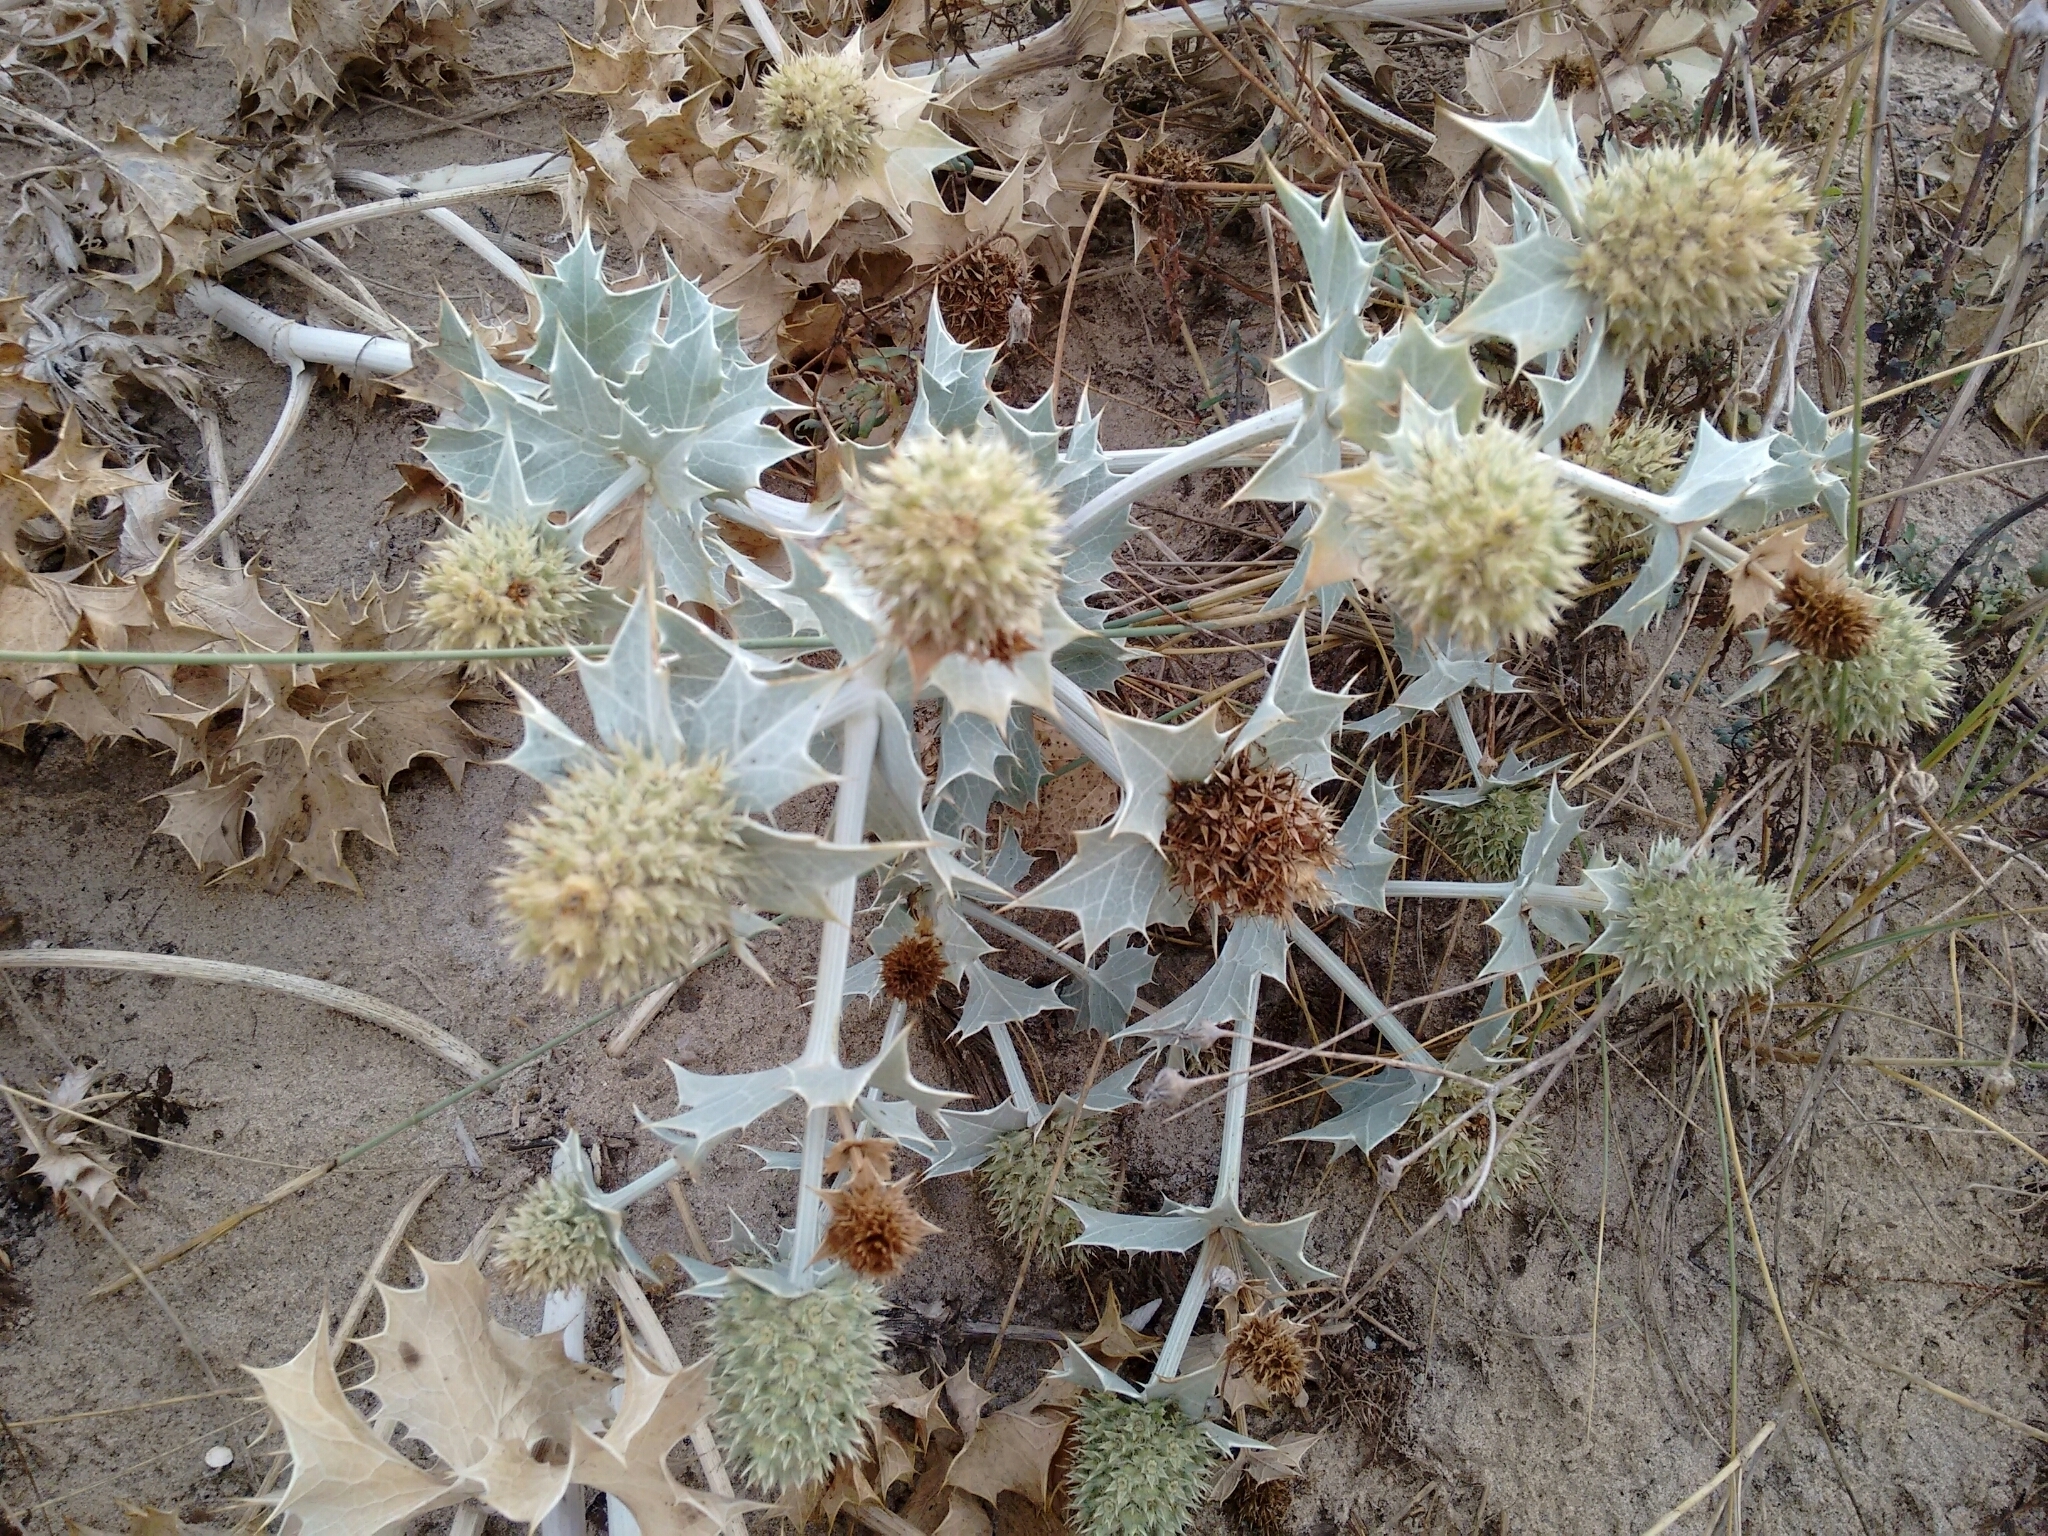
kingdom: Plantae
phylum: Tracheophyta
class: Magnoliopsida
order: Apiales
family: Apiaceae
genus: Eryngium
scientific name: Eryngium maritimum
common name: Sea-holly
